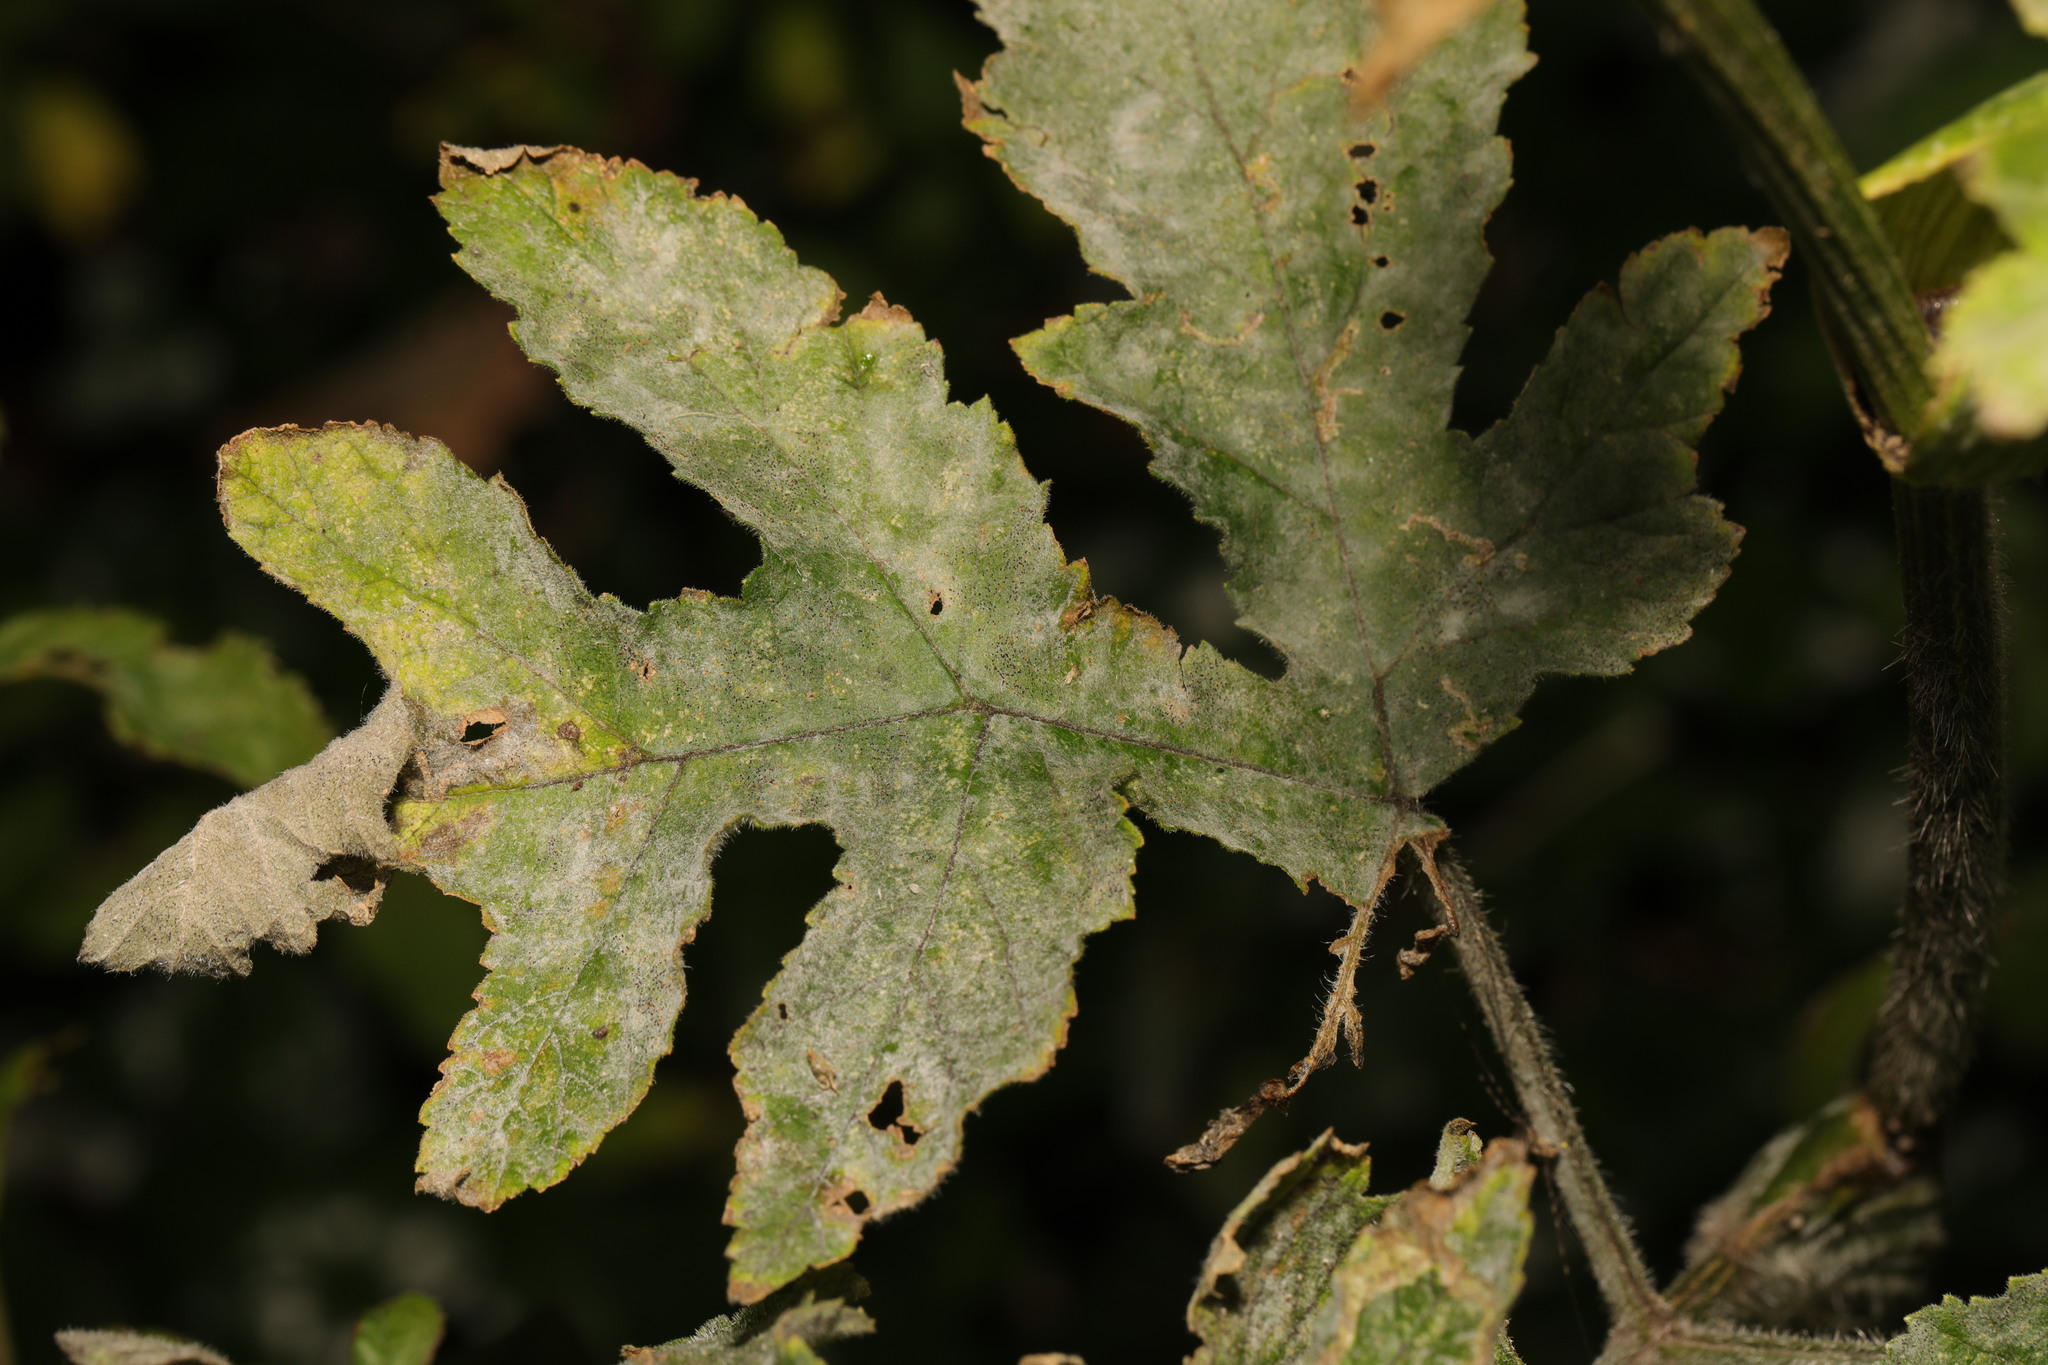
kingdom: Fungi
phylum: Ascomycota
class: Leotiomycetes
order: Helotiales
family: Erysiphaceae
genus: Erysiphe
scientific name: Erysiphe heraclei
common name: Umbellifer mildew
